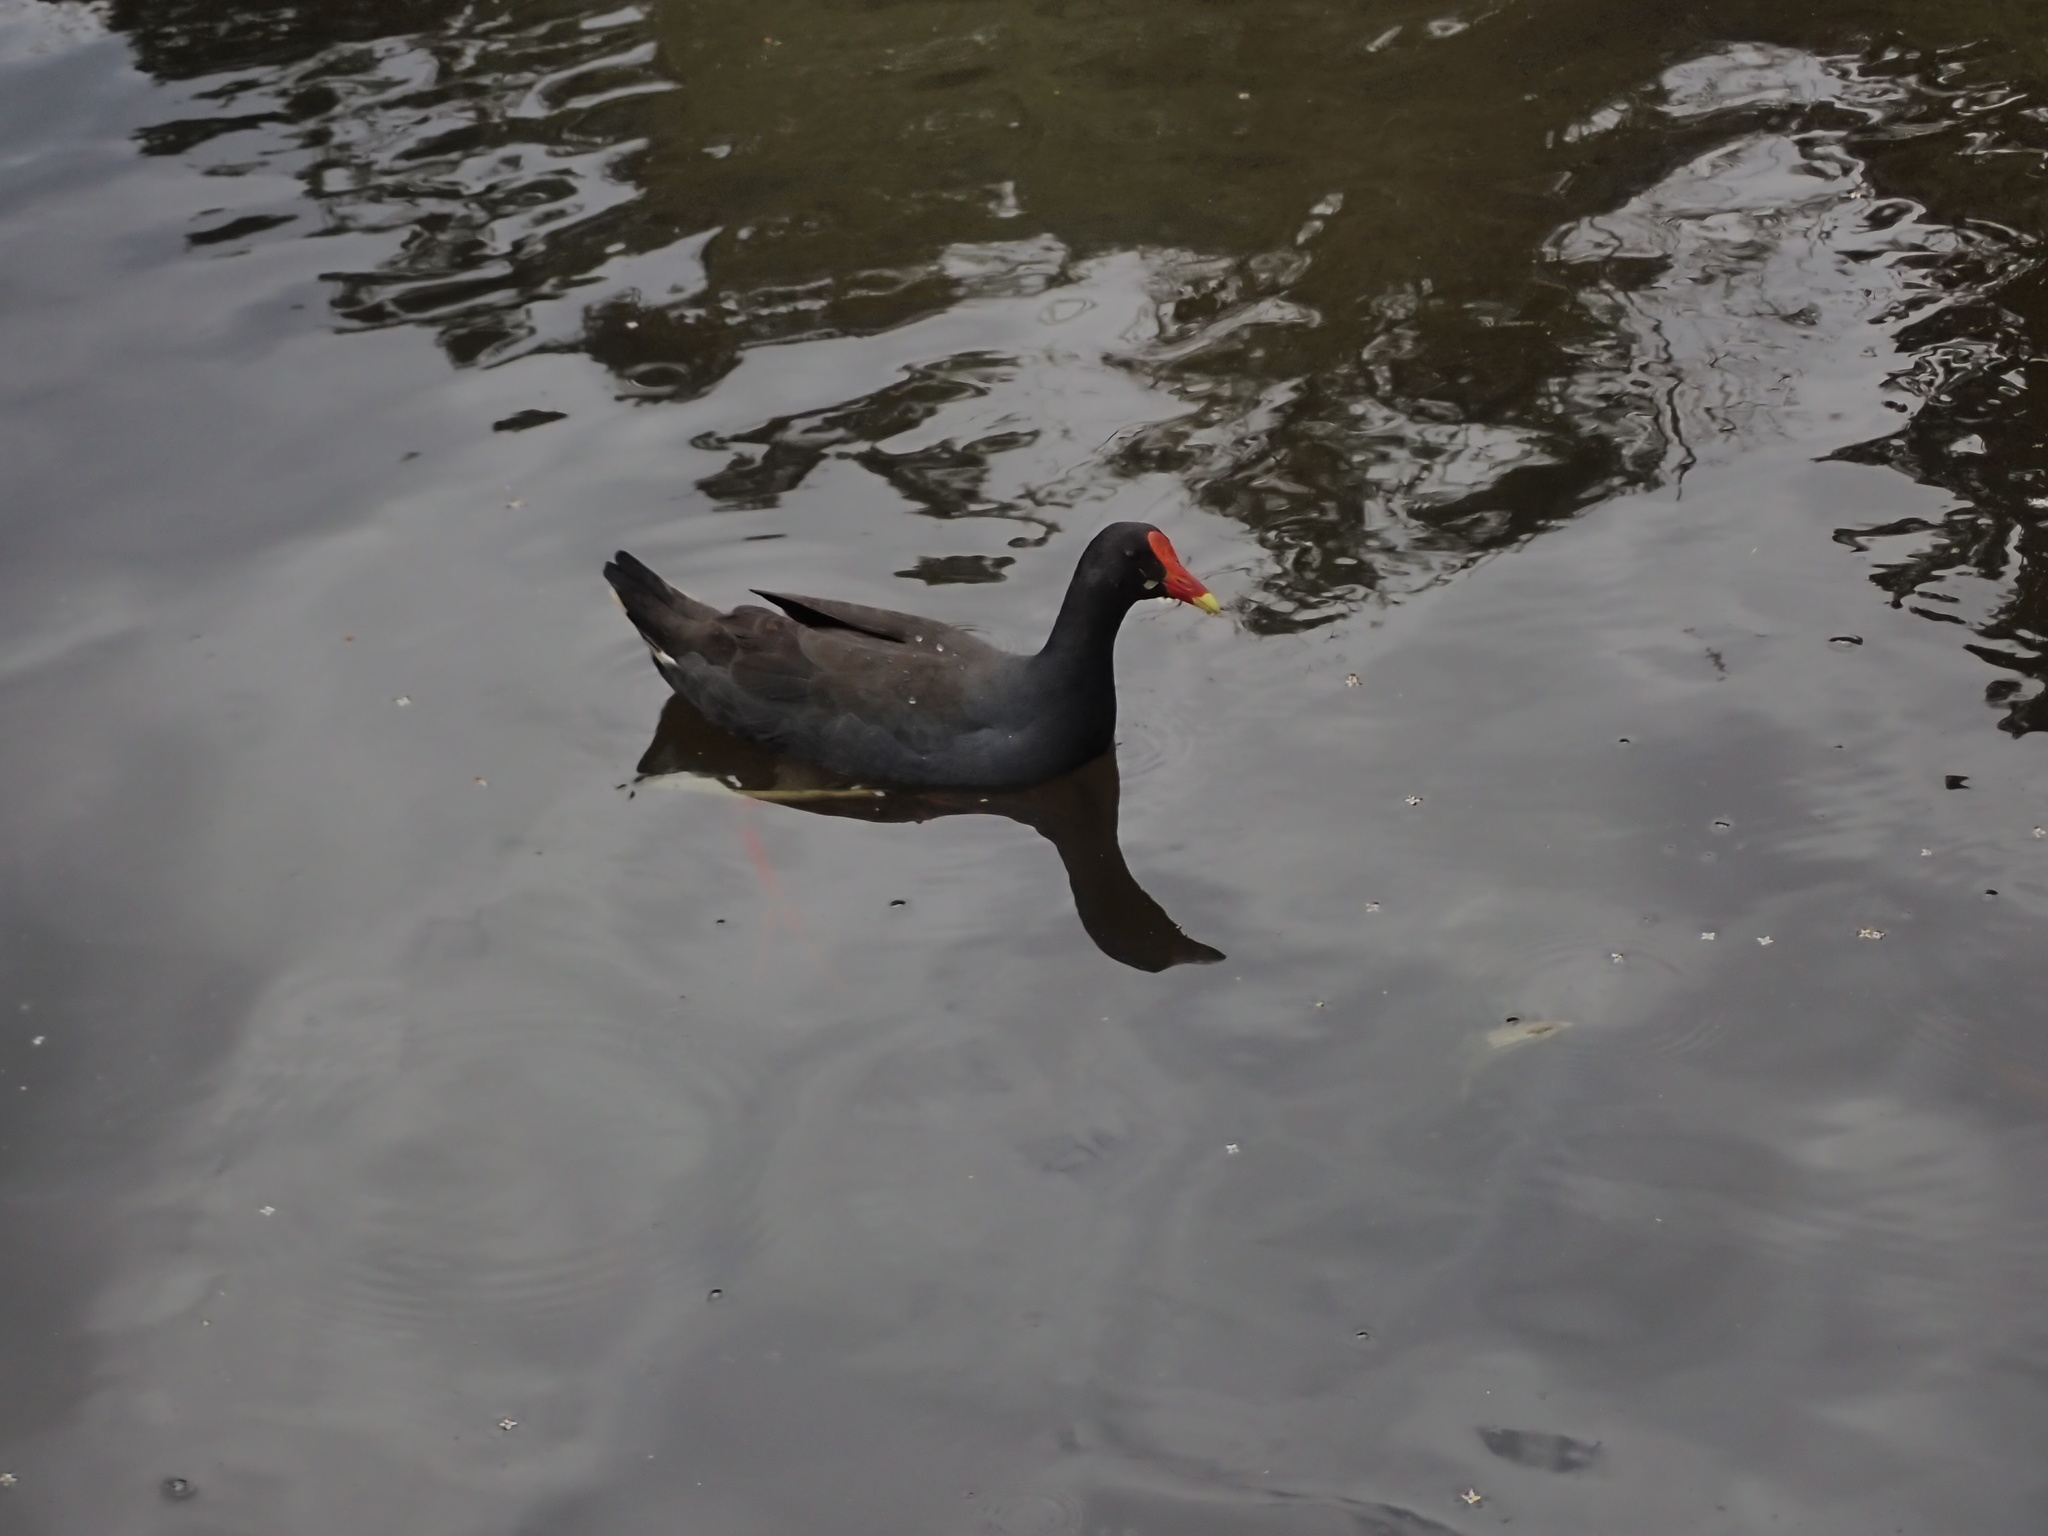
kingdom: Animalia
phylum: Chordata
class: Aves
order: Gruiformes
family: Rallidae
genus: Gallinula
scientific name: Gallinula tenebrosa
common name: Dusky moorhen
